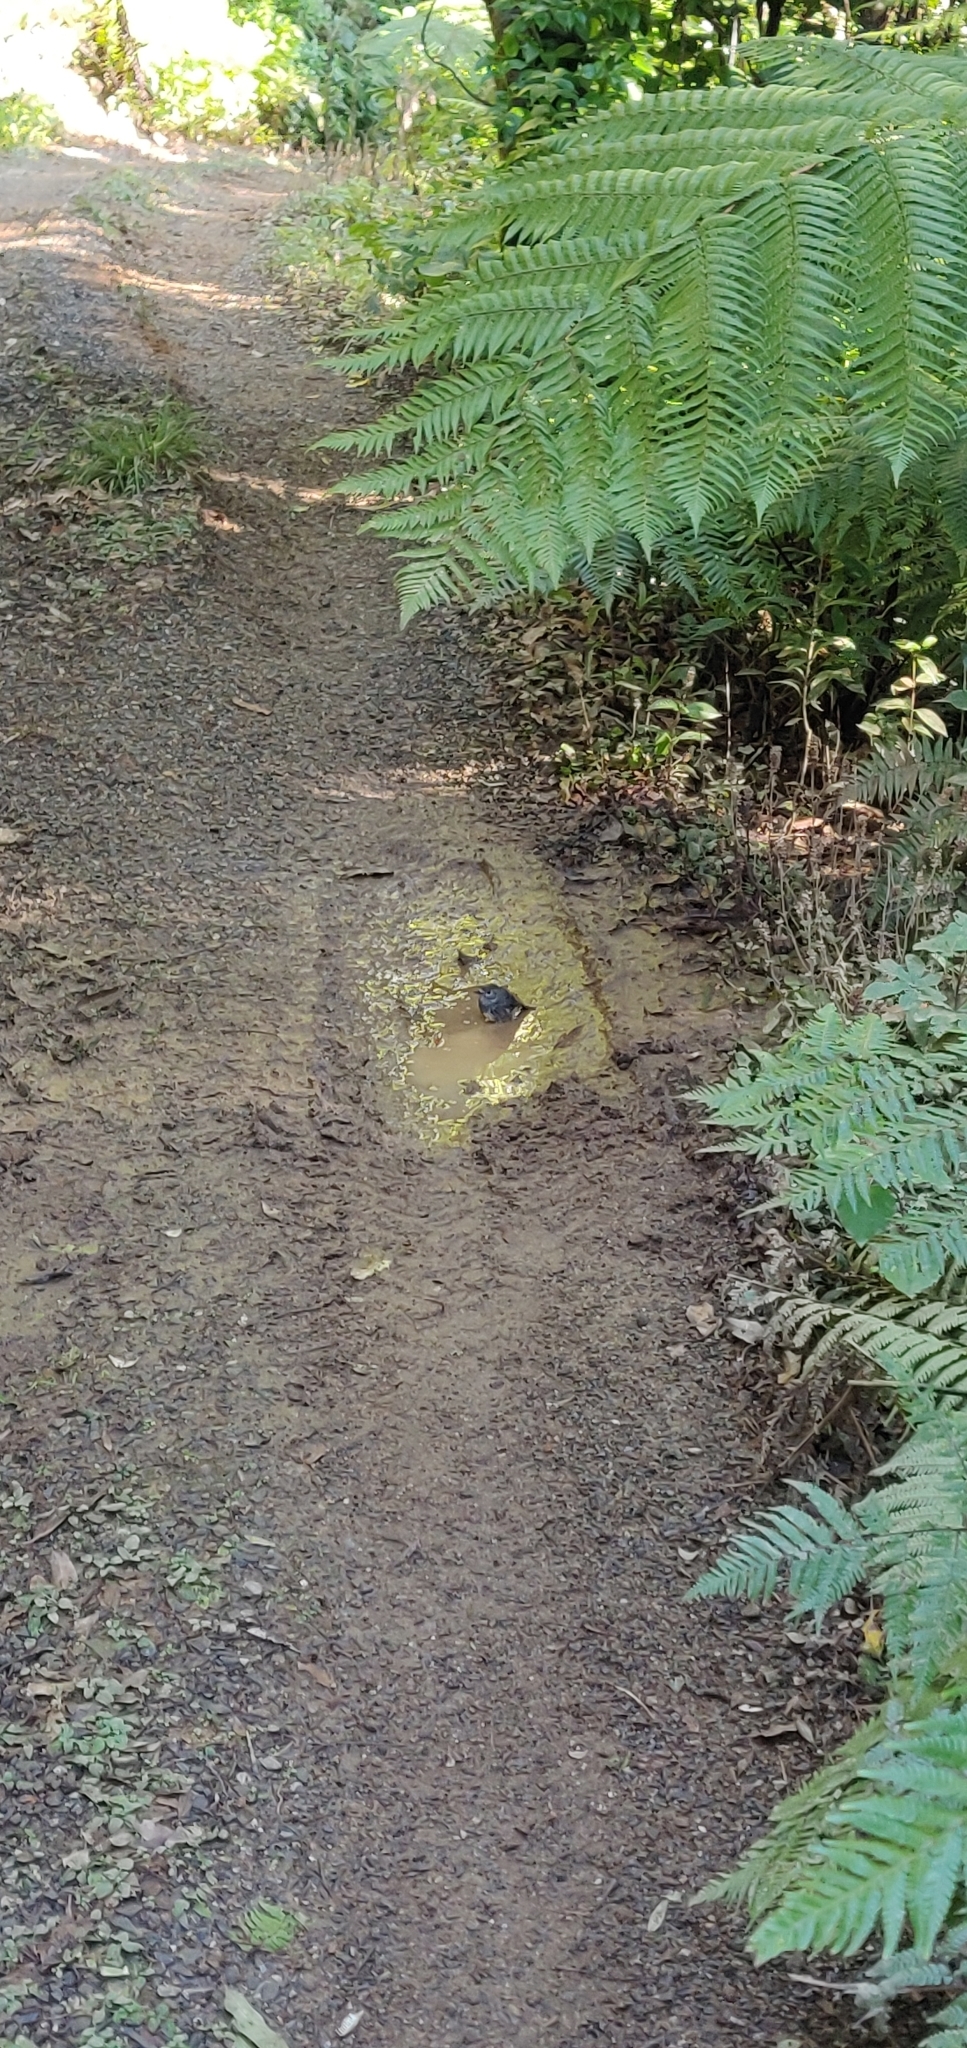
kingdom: Animalia
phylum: Chordata
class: Aves
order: Passeriformes
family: Petroicidae
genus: Petroica
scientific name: Petroica australis
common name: New zealand robin
